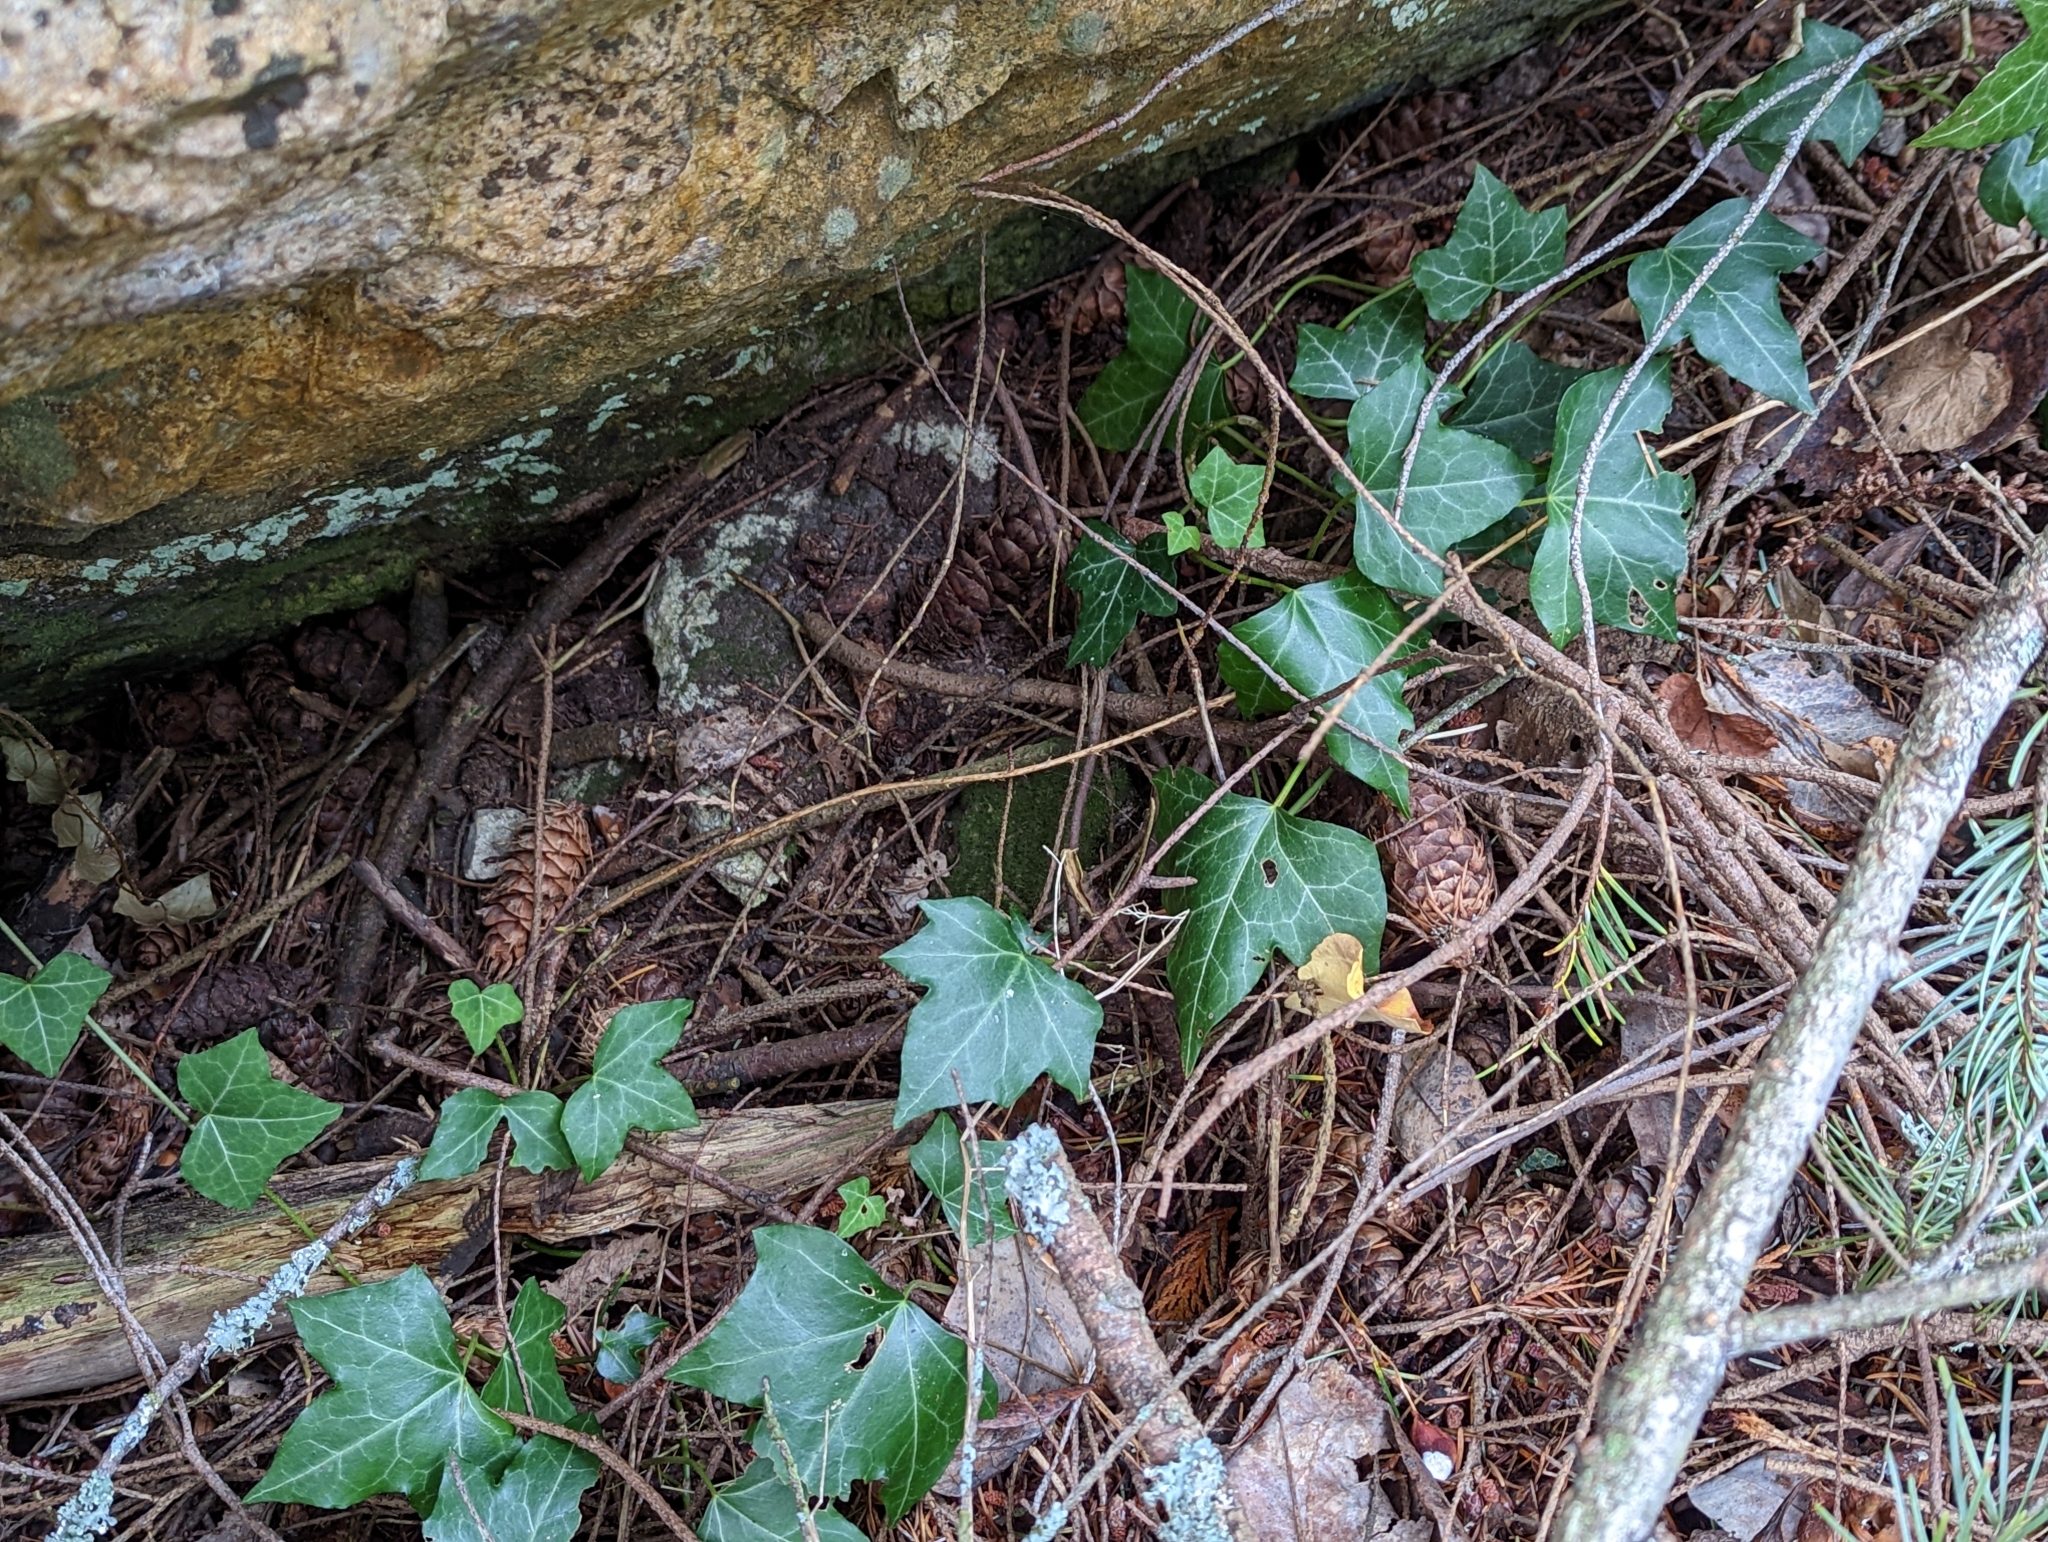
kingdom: Plantae
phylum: Tracheophyta
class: Magnoliopsida
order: Apiales
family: Araliaceae
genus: Hedera
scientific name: Hedera helix
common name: Ivy
